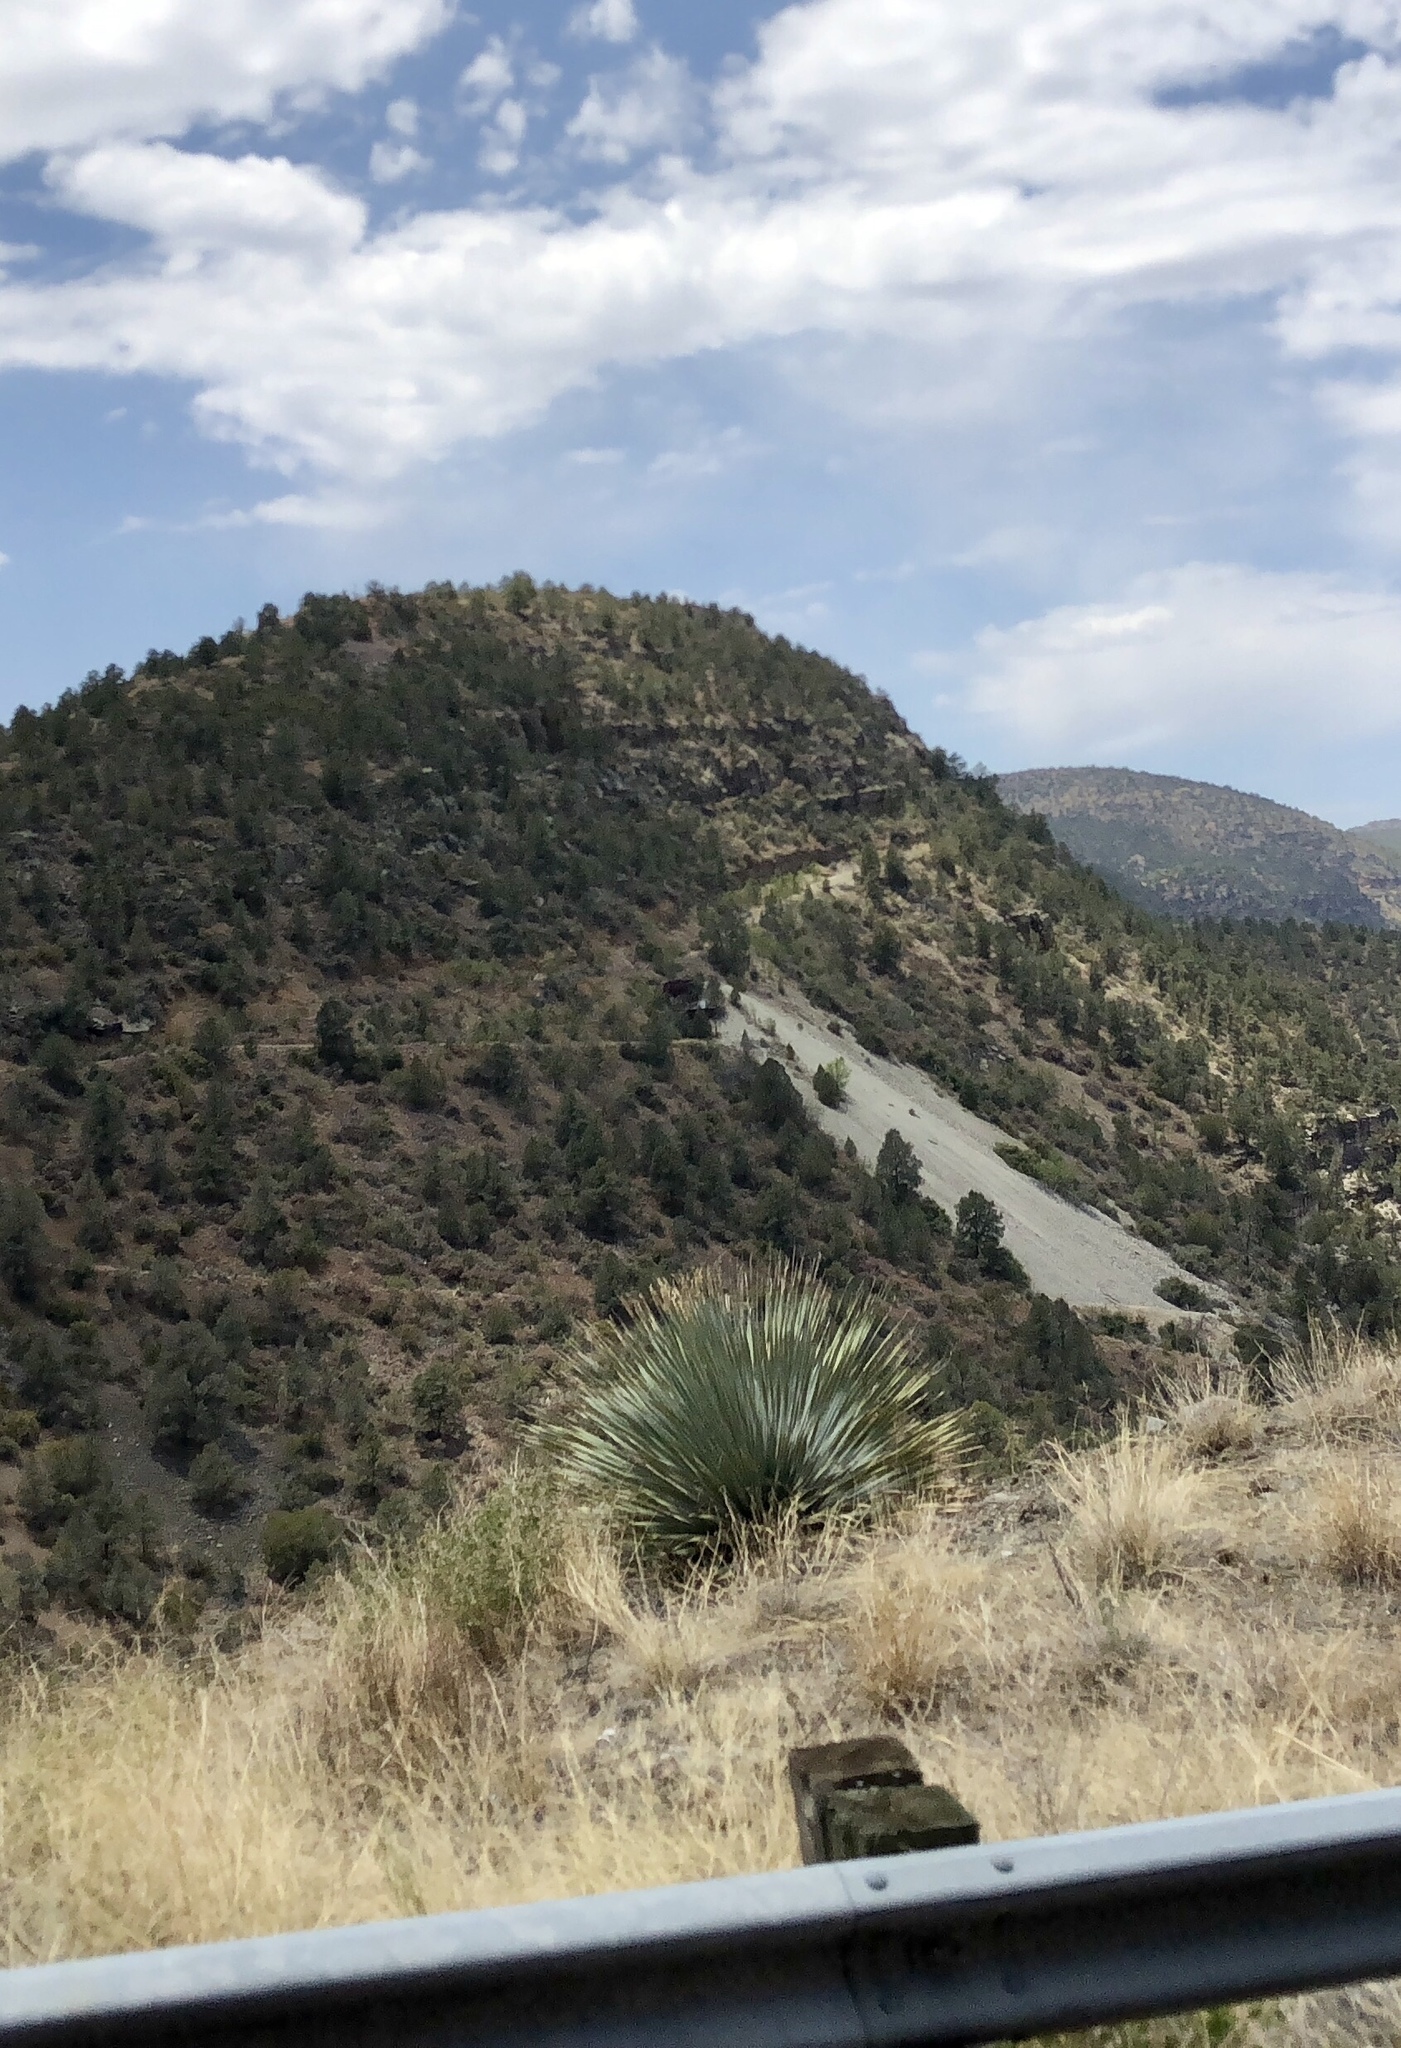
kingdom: Plantae
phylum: Tracheophyta
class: Liliopsida
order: Asparagales
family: Asparagaceae
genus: Dasylirion
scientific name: Dasylirion wheeleri
